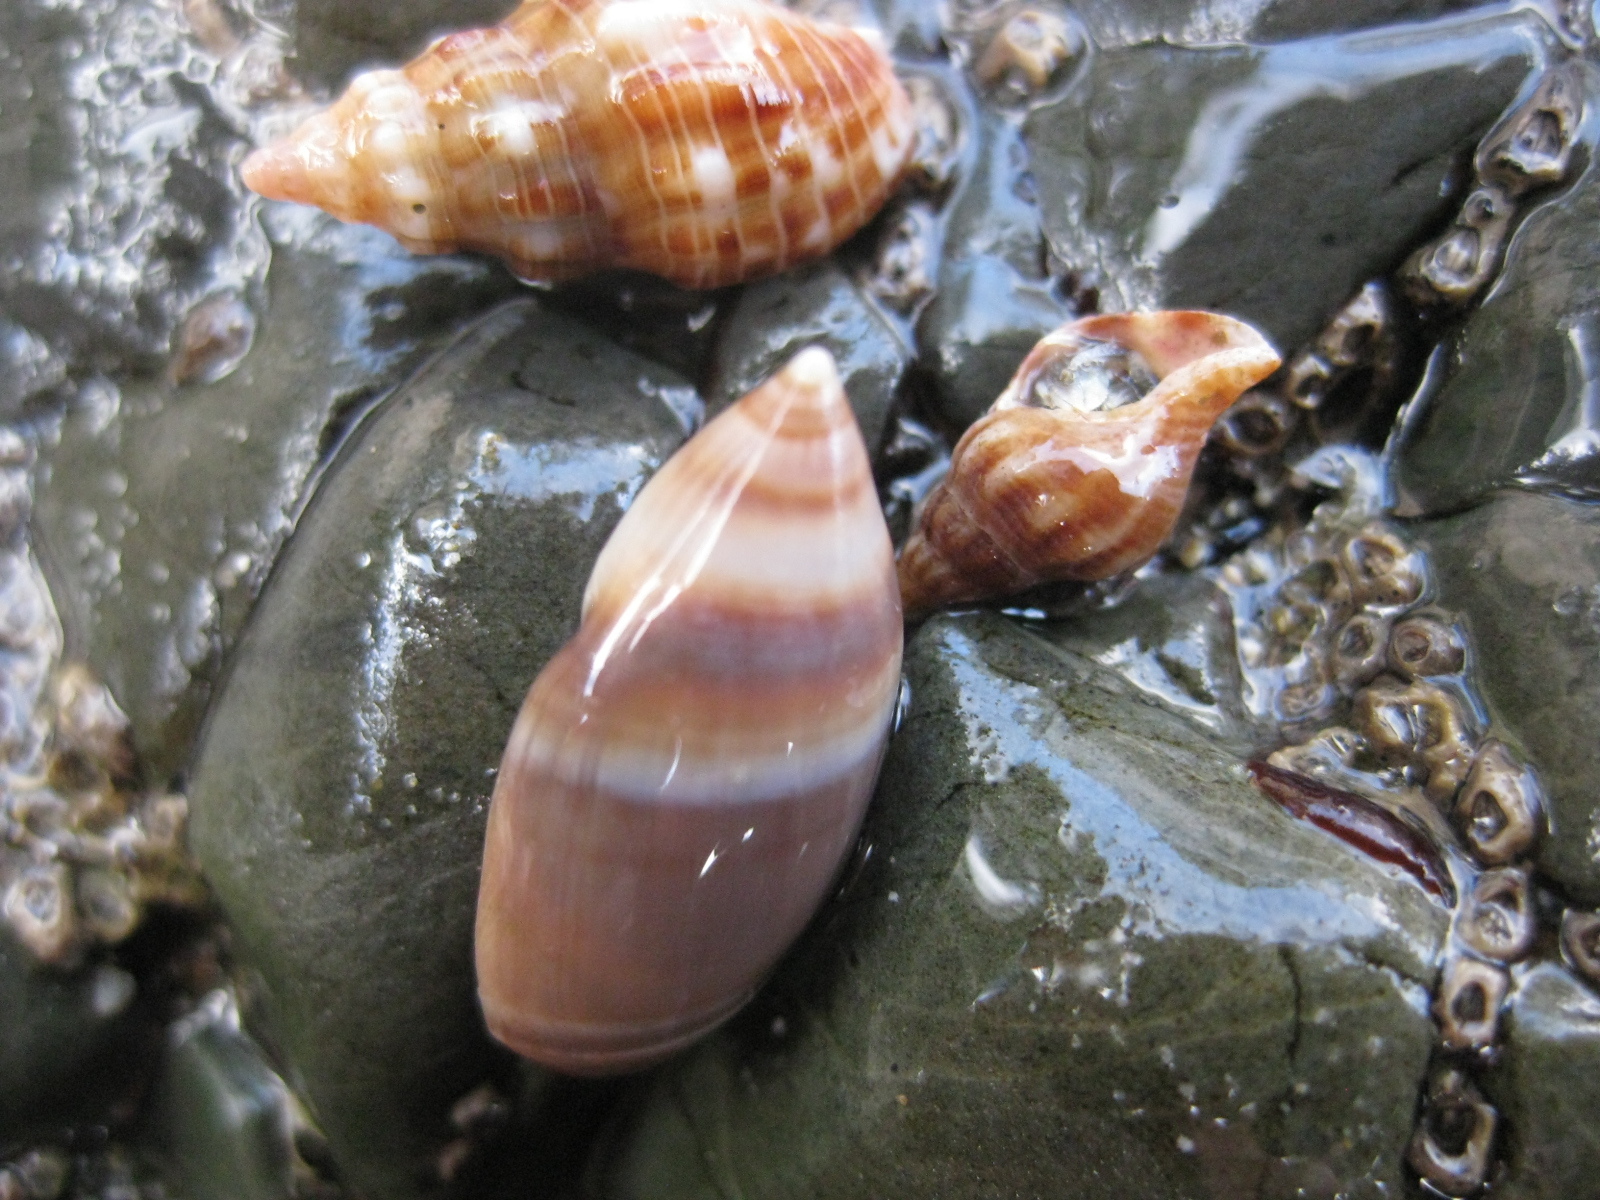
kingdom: Animalia
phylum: Mollusca
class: Gastropoda
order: Neogastropoda
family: Ancillariidae
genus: Amalda
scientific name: Amalda australis
